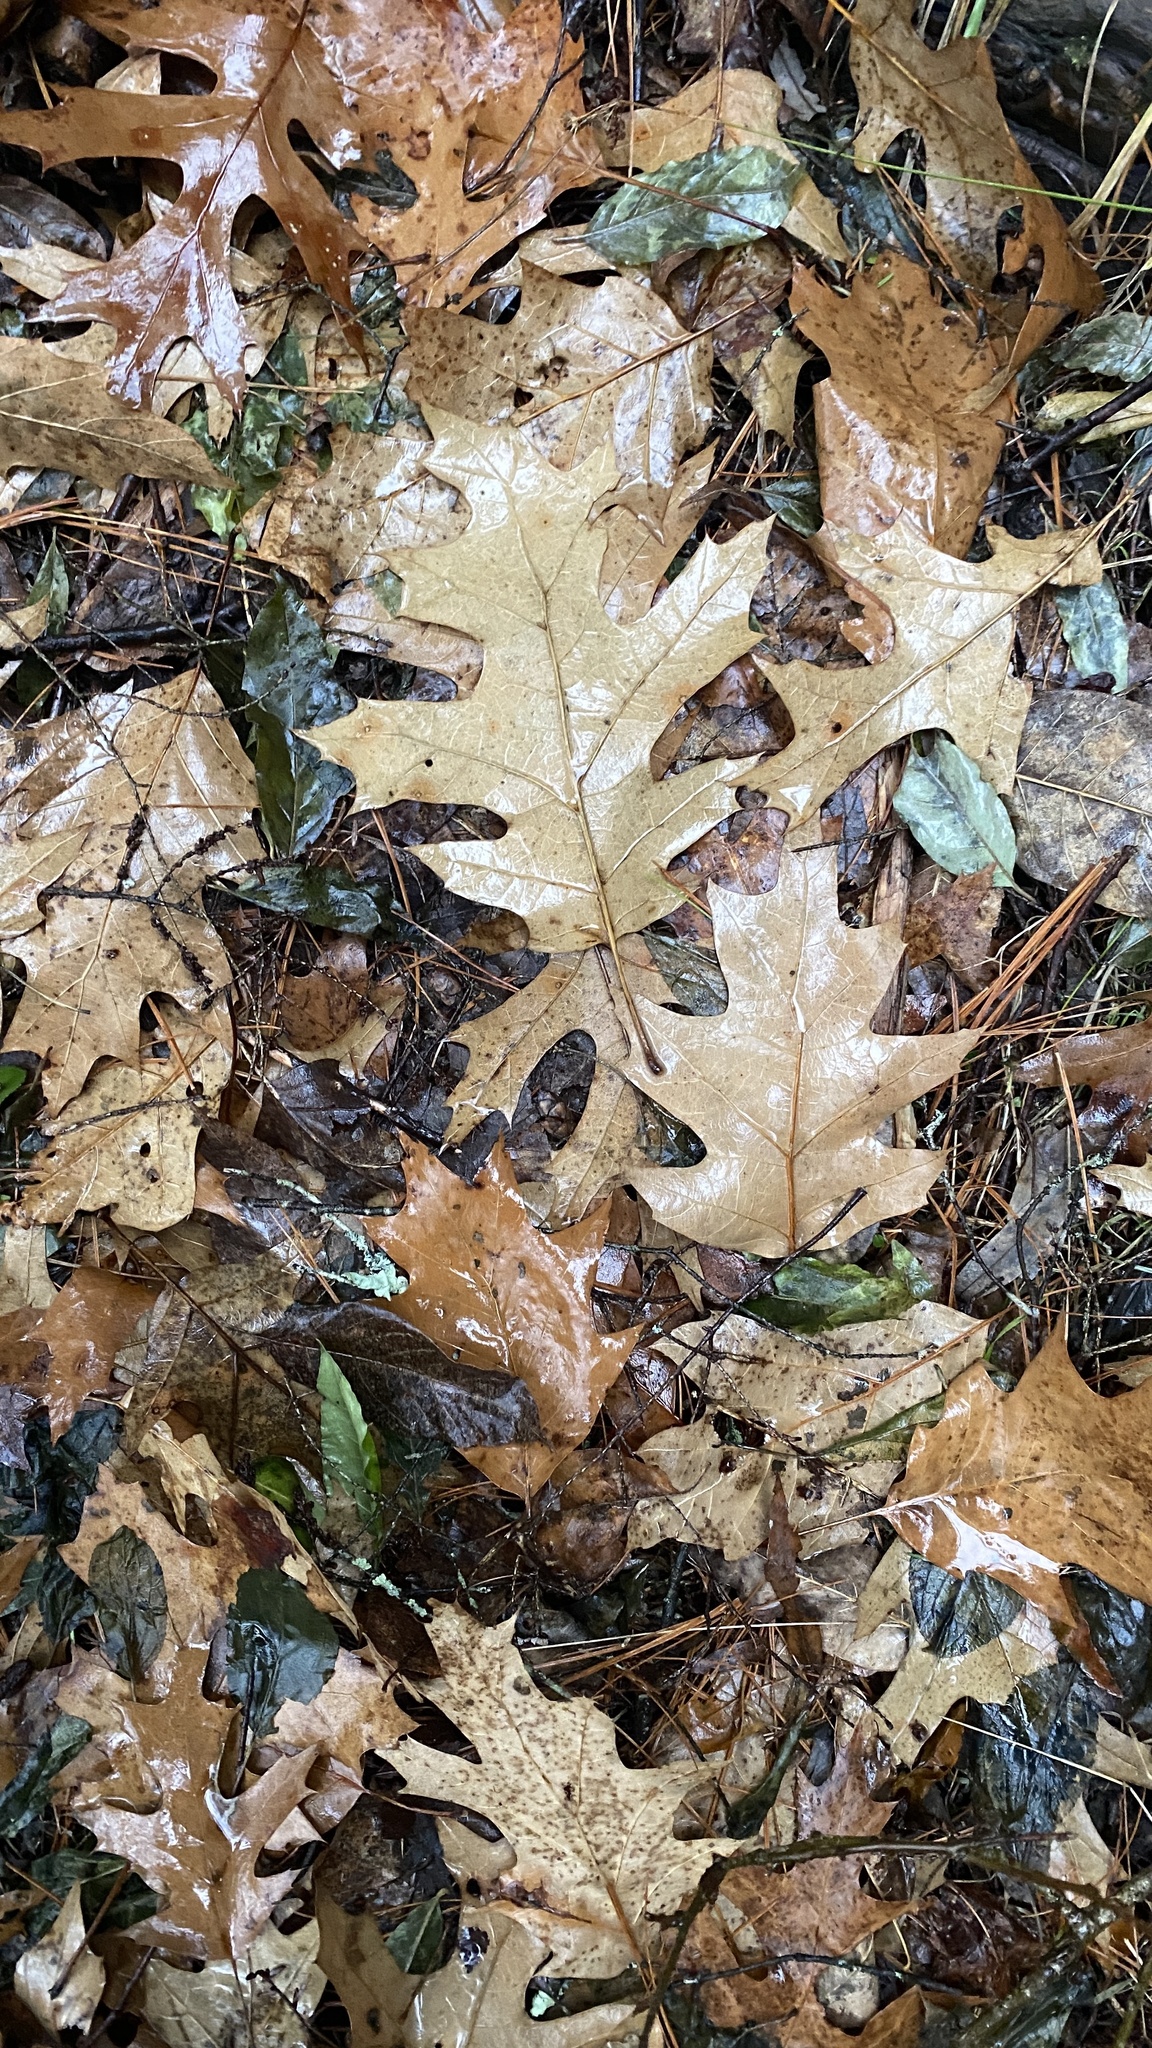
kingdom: Plantae
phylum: Tracheophyta
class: Magnoliopsida
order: Fagales
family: Fagaceae
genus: Quercus
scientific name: Quercus rubra
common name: Red oak
